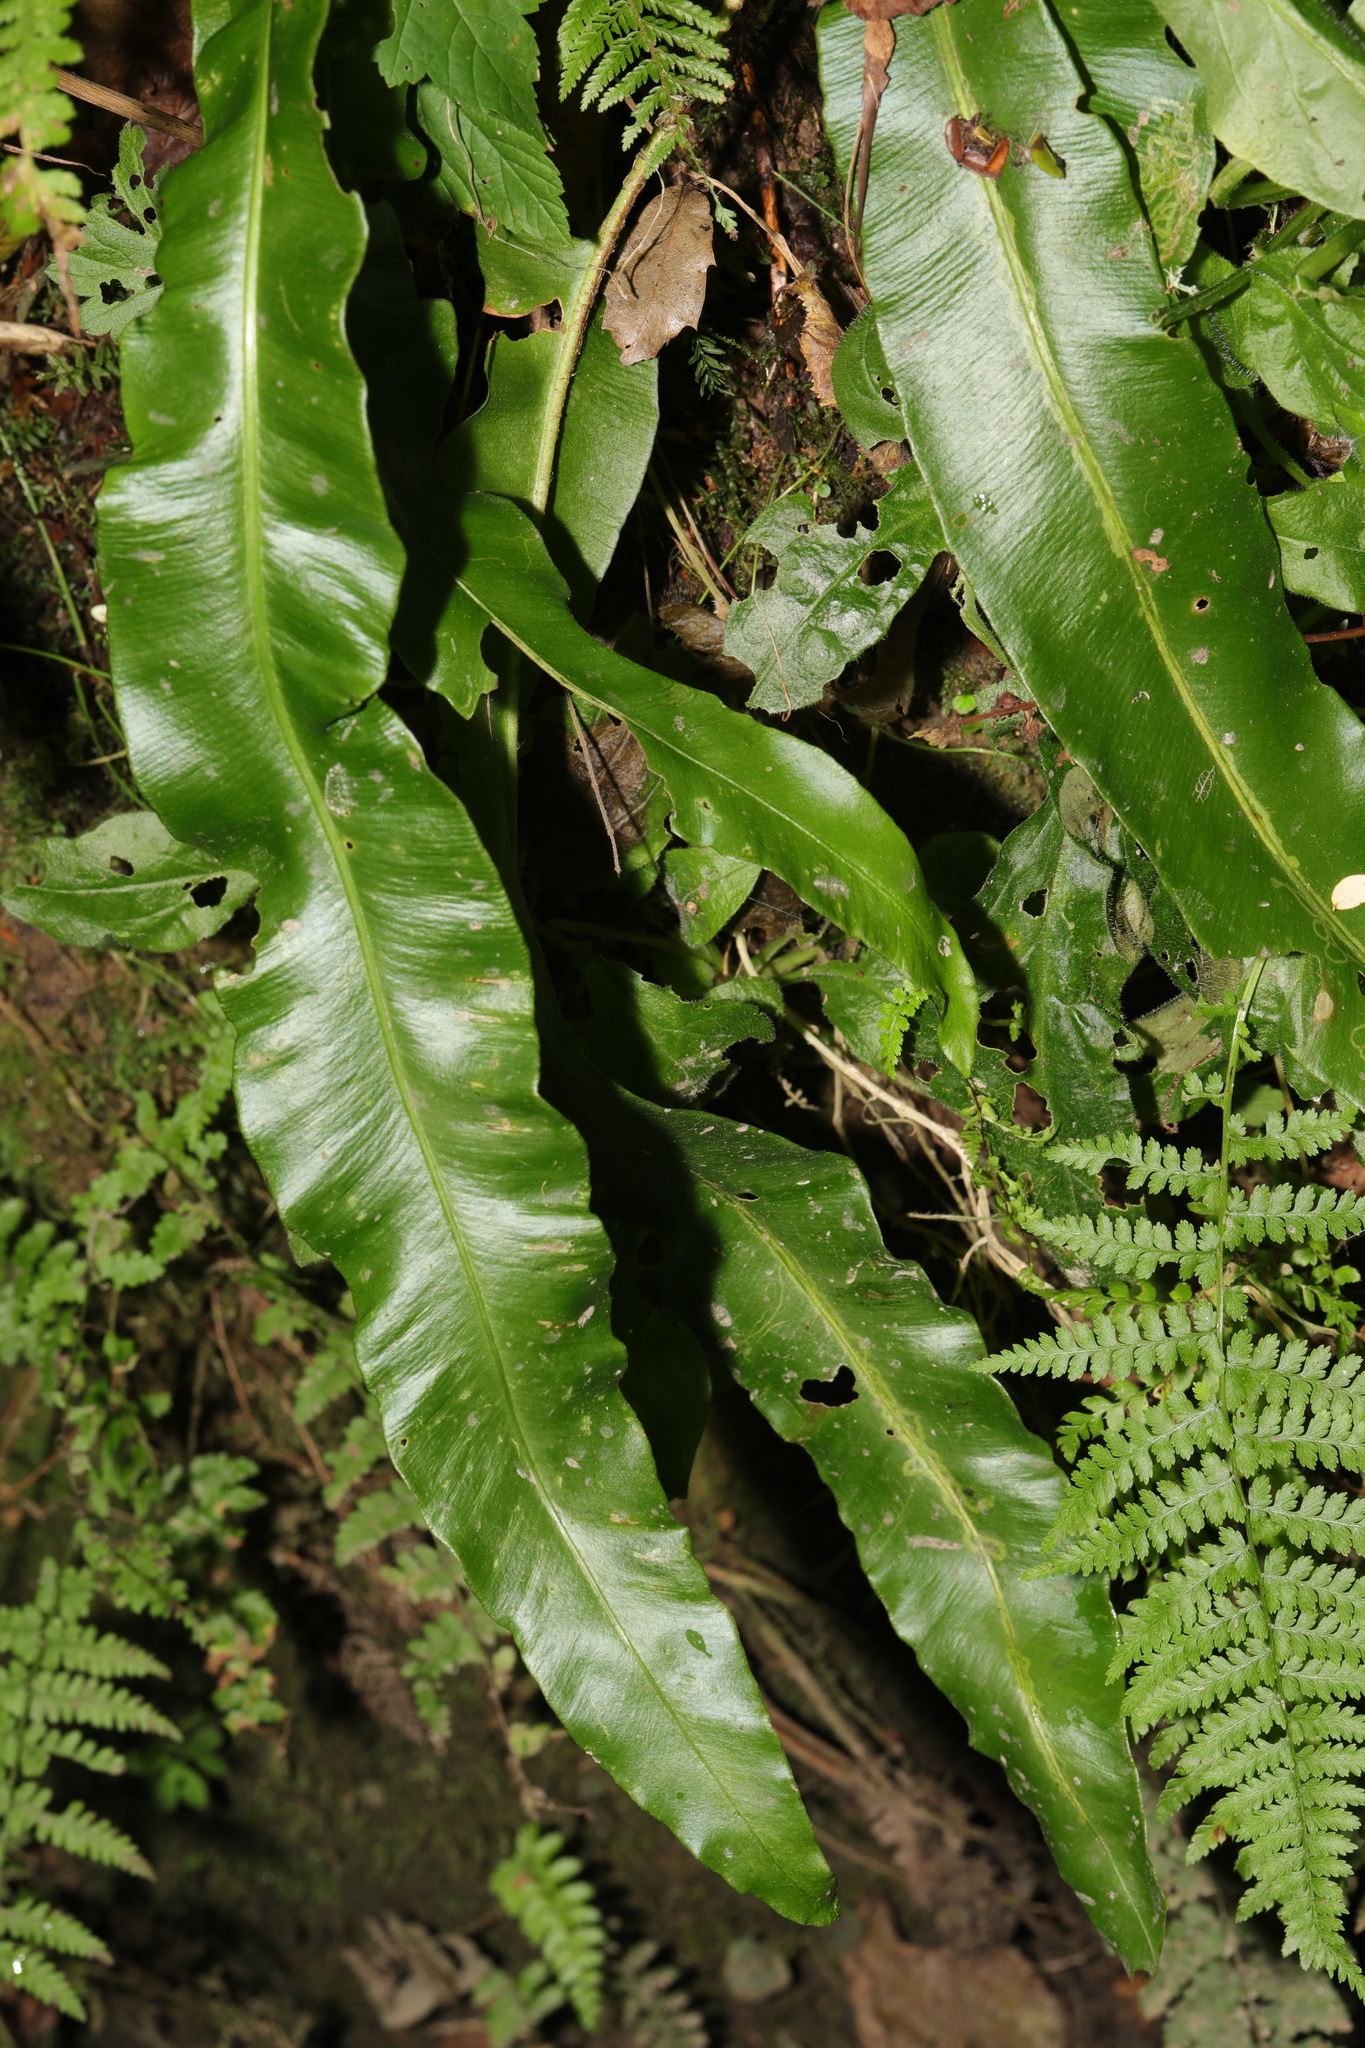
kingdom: Plantae
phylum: Tracheophyta
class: Polypodiopsida
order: Polypodiales
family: Aspleniaceae
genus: Asplenium
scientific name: Asplenium scolopendrium
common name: Hart's-tongue fern
